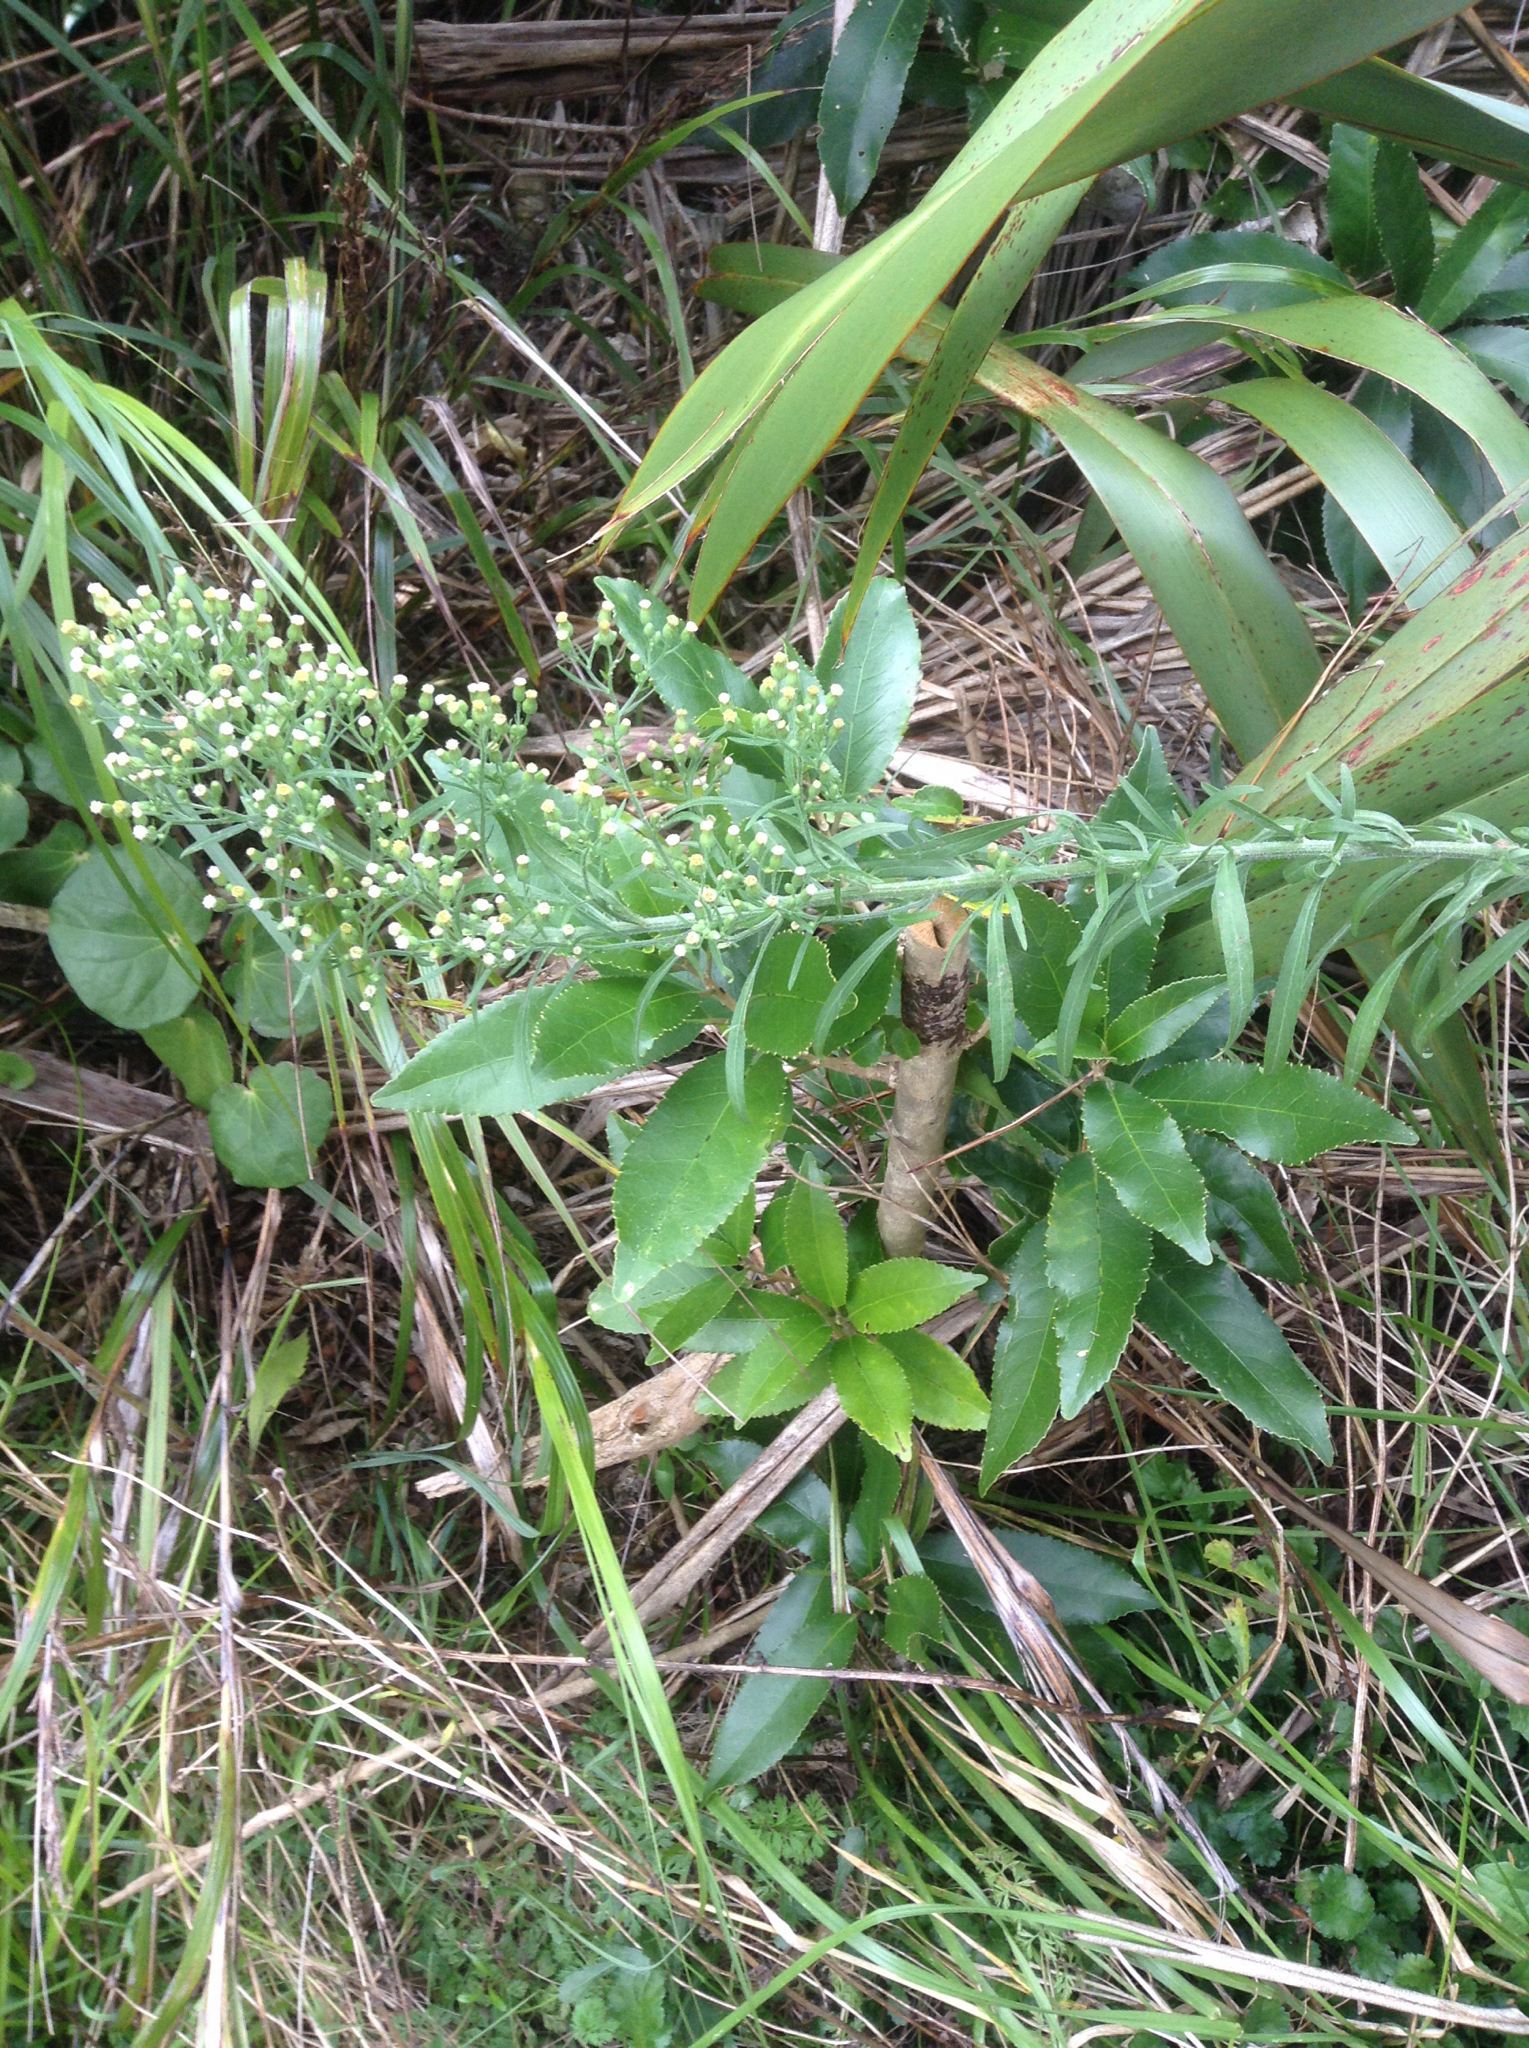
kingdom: Plantae
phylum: Tracheophyta
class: Magnoliopsida
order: Asterales
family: Asteraceae
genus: Erigeron
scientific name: Erigeron sumatrensis
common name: Daisy
